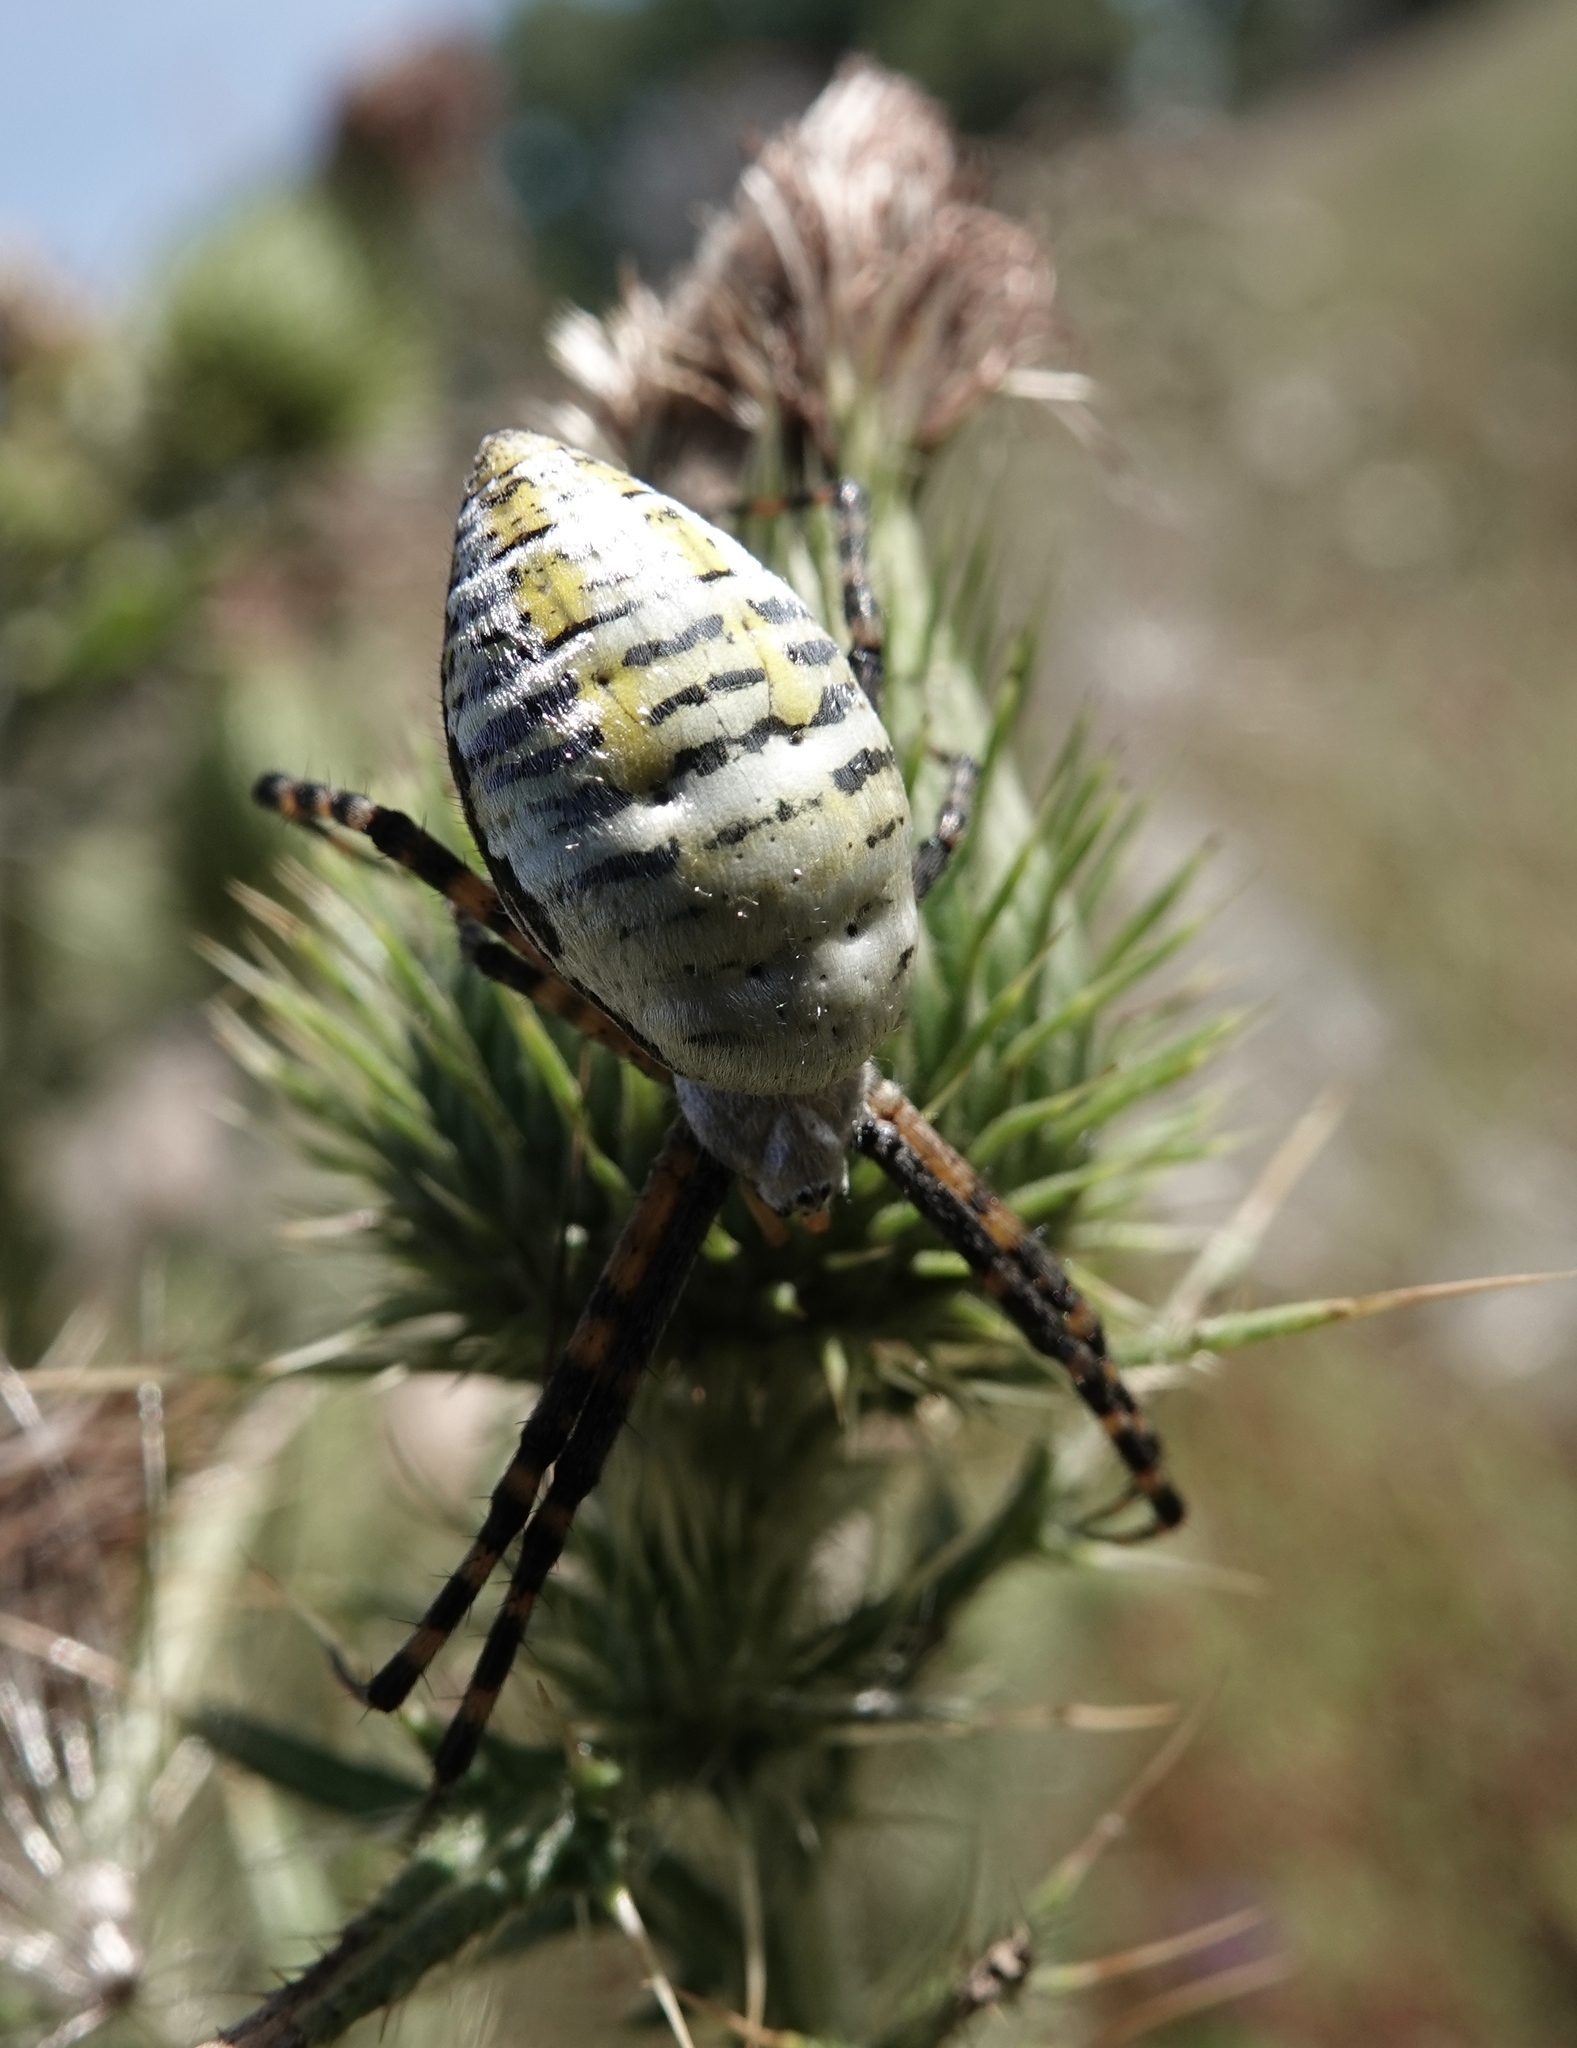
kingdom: Animalia
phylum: Arthropoda
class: Arachnida
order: Araneae
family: Araneidae
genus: Argiope
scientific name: Argiope trifasciata
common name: Banded garden spider
